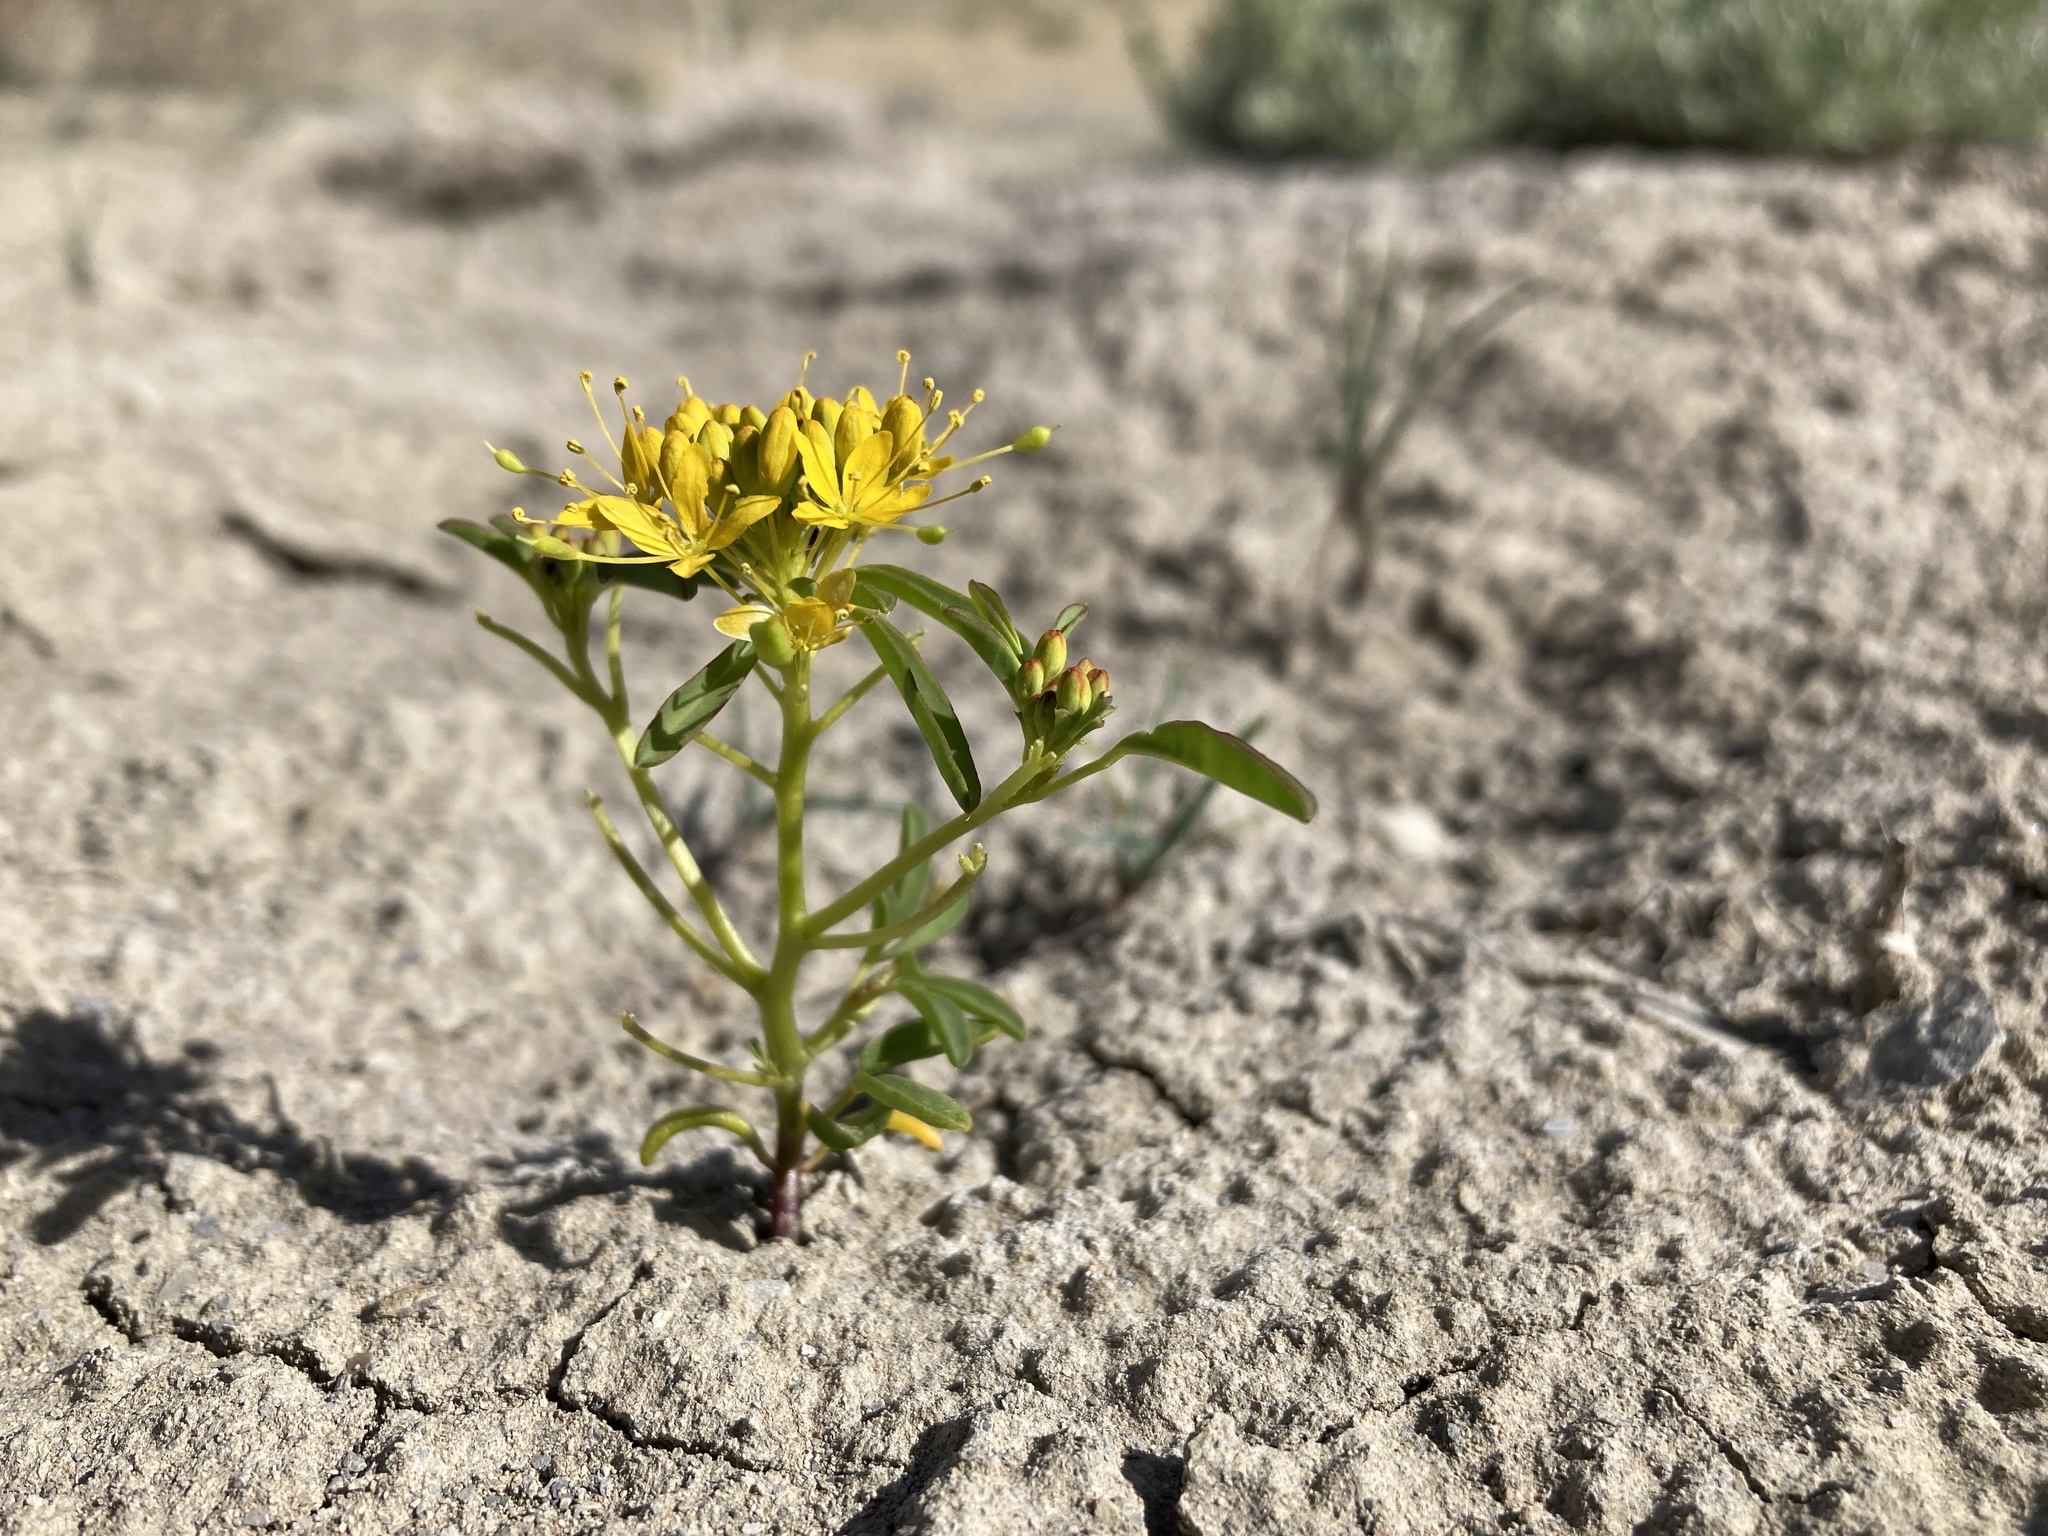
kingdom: Plantae
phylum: Tracheophyta
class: Magnoliopsida
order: Brassicales
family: Cleomaceae
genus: Cleomella
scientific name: Cleomella lutea
